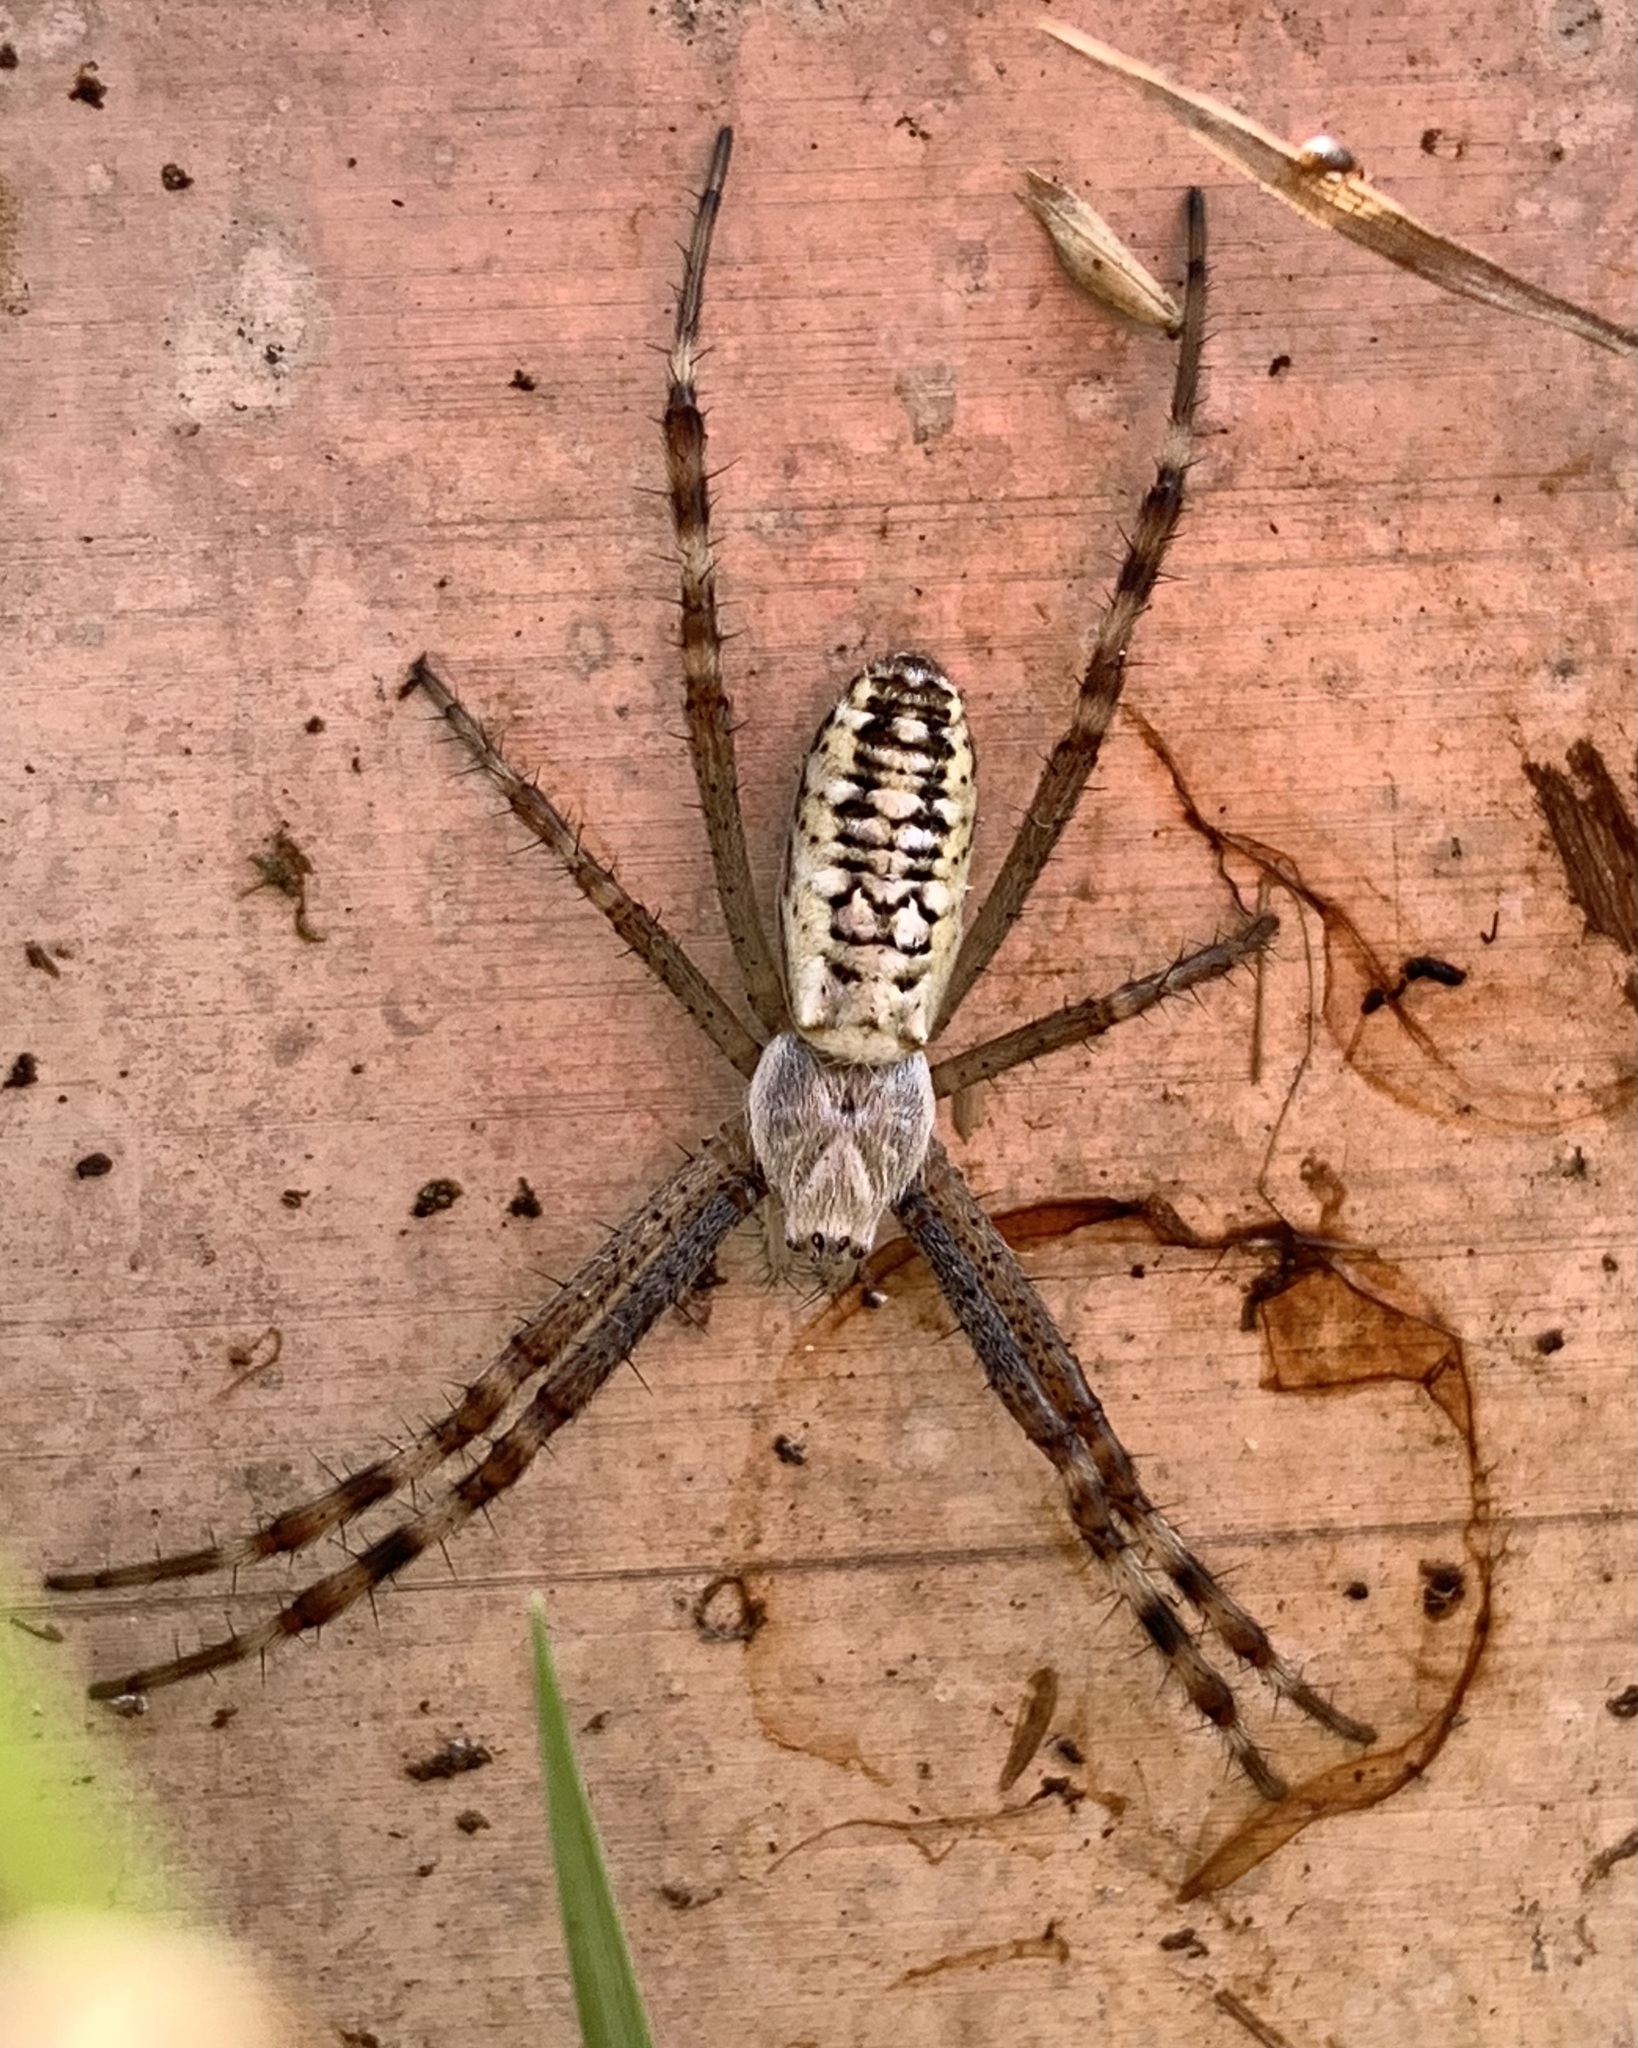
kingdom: Animalia
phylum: Arthropoda
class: Arachnida
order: Araneae
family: Araneidae
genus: Argiope
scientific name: Argiope bruennichi
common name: Wasp spider
